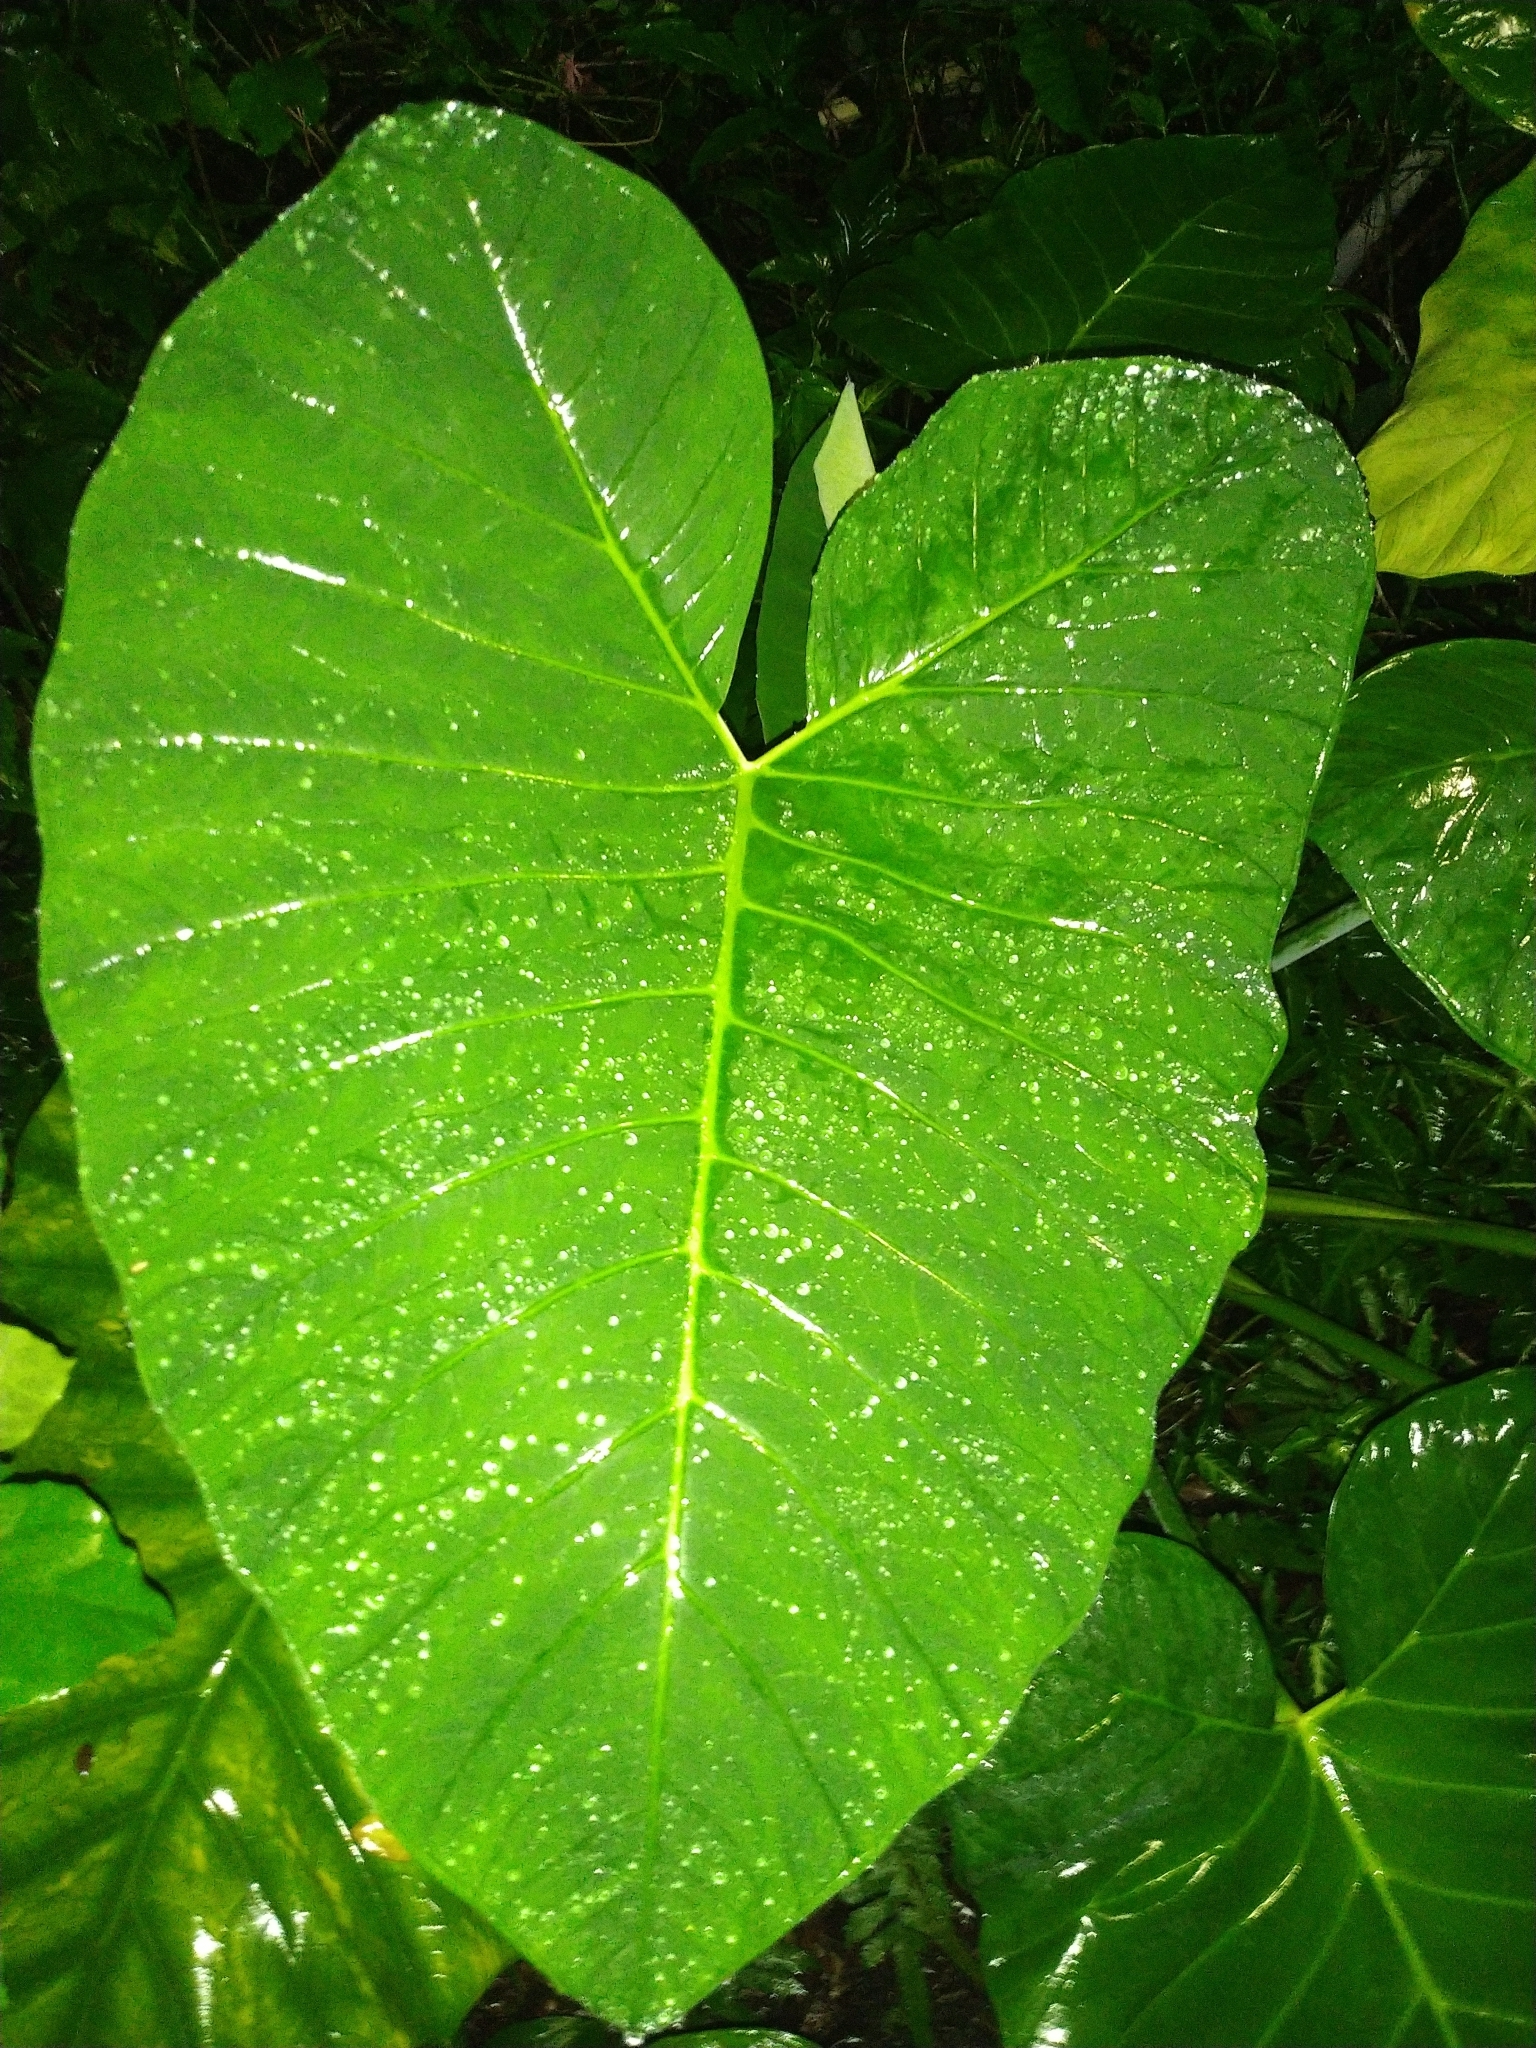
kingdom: Plantae
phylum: Tracheophyta
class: Liliopsida
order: Alismatales
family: Araceae
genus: Xanthosoma
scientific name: Xanthosoma sagittifolium
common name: Arrowleaf elephant's ear
